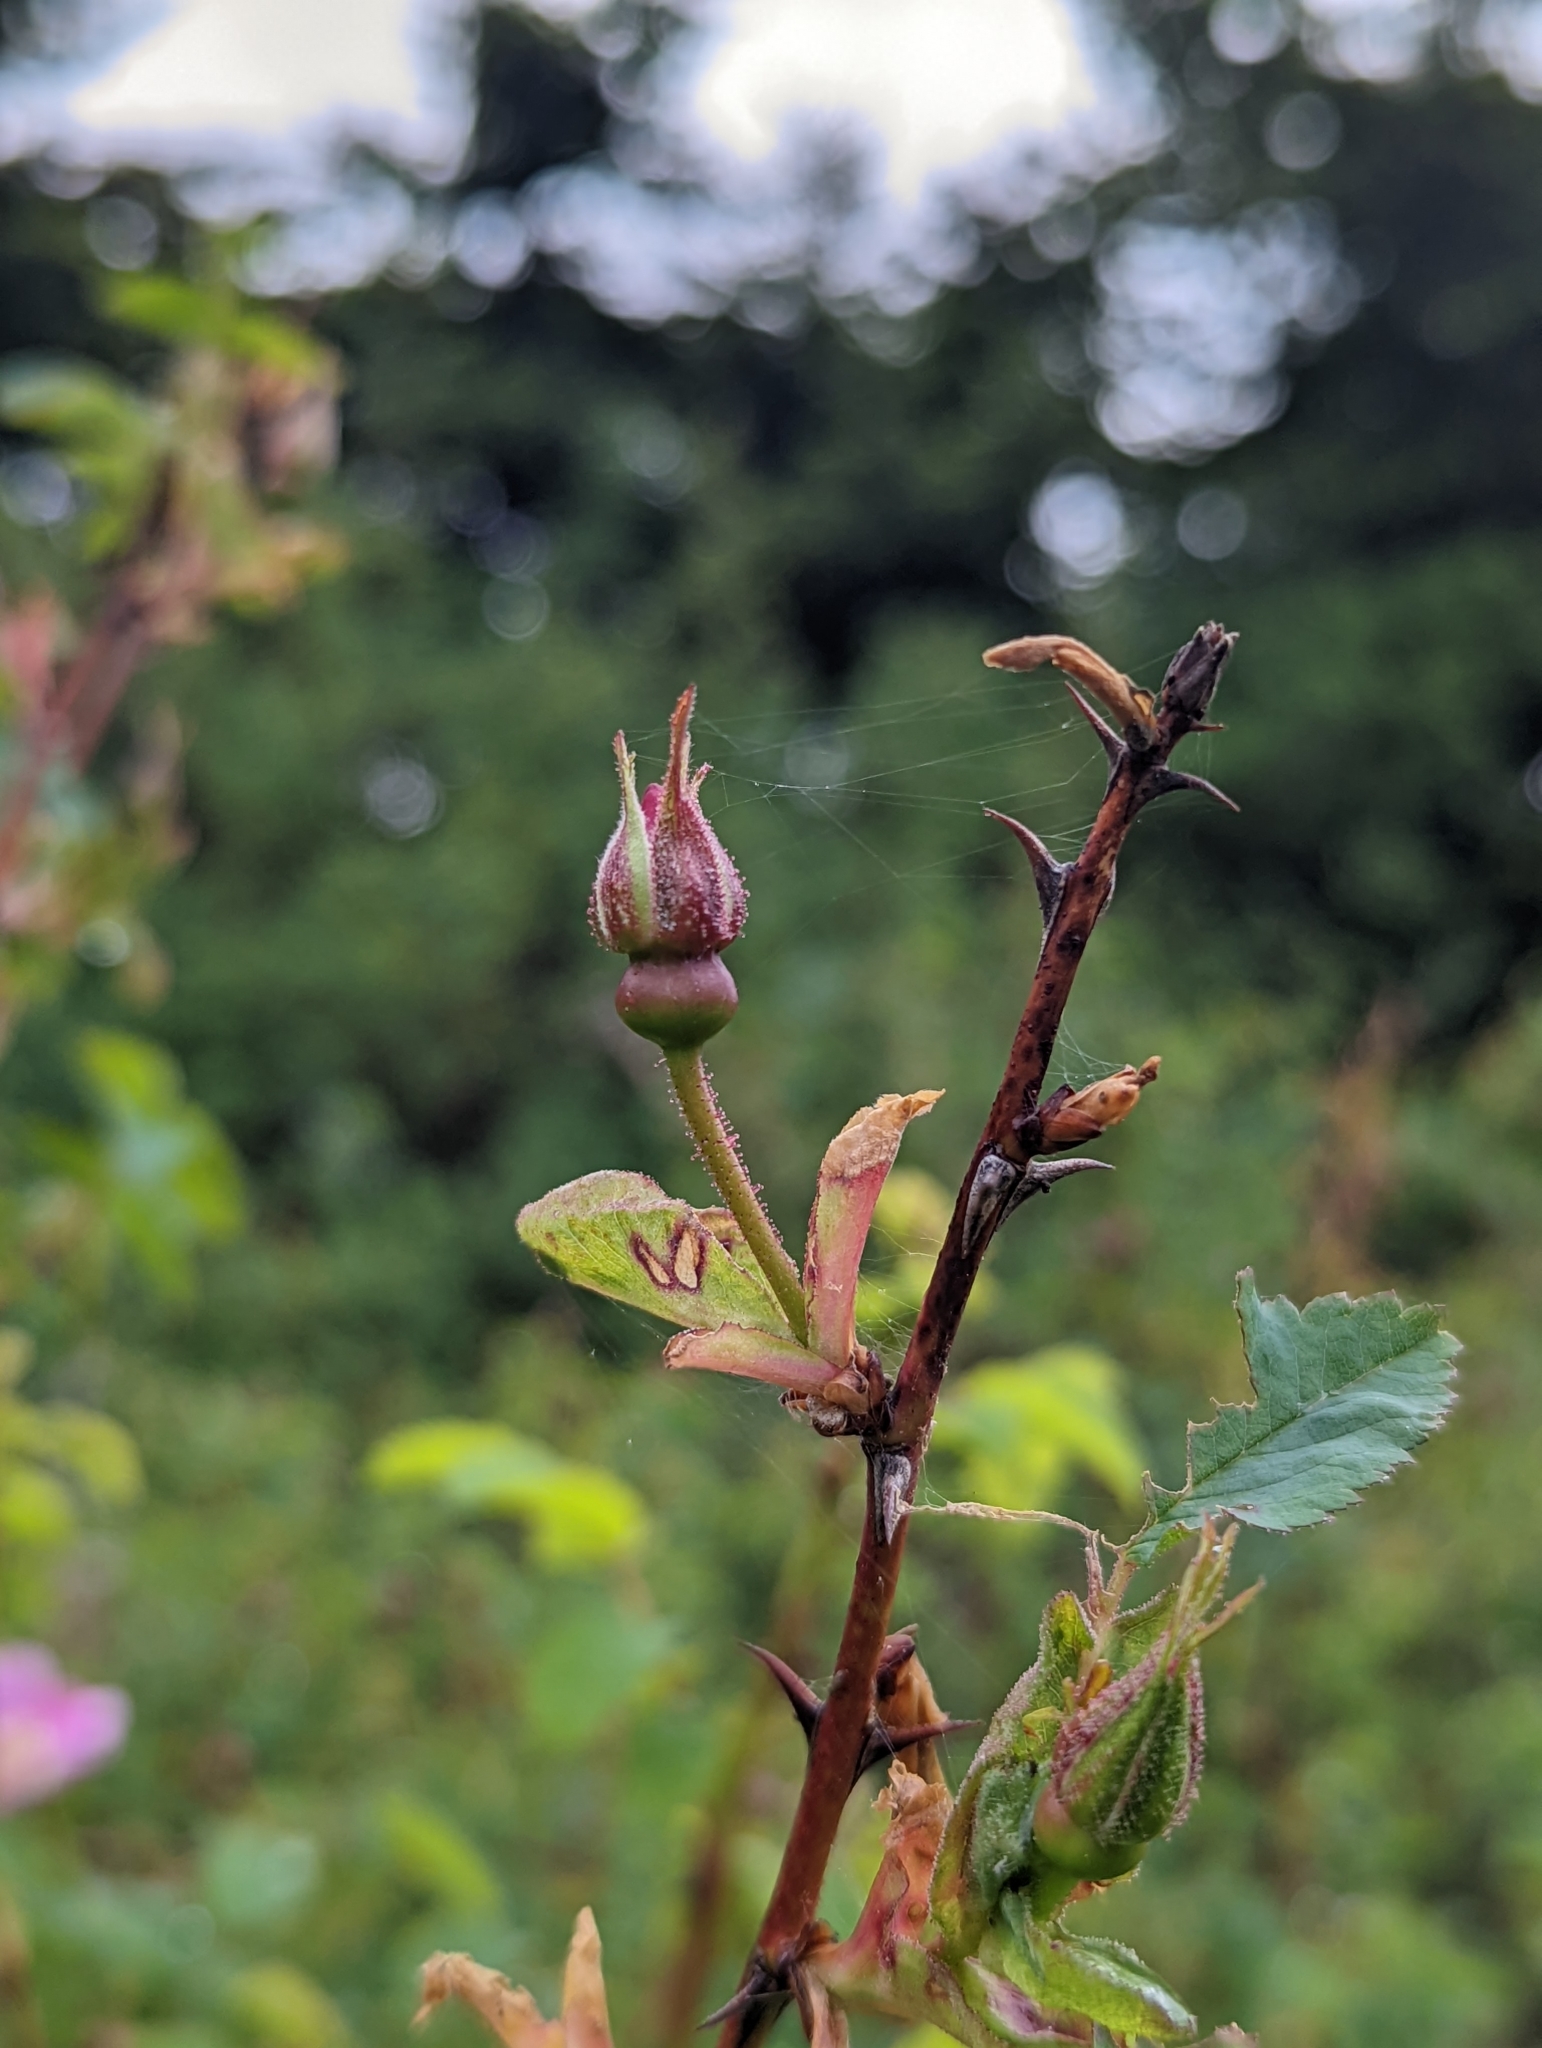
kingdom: Plantae
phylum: Tracheophyta
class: Magnoliopsida
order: Rosales
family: Rosaceae
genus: Rosa
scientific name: Rosa nutkana
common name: Nootka rose
